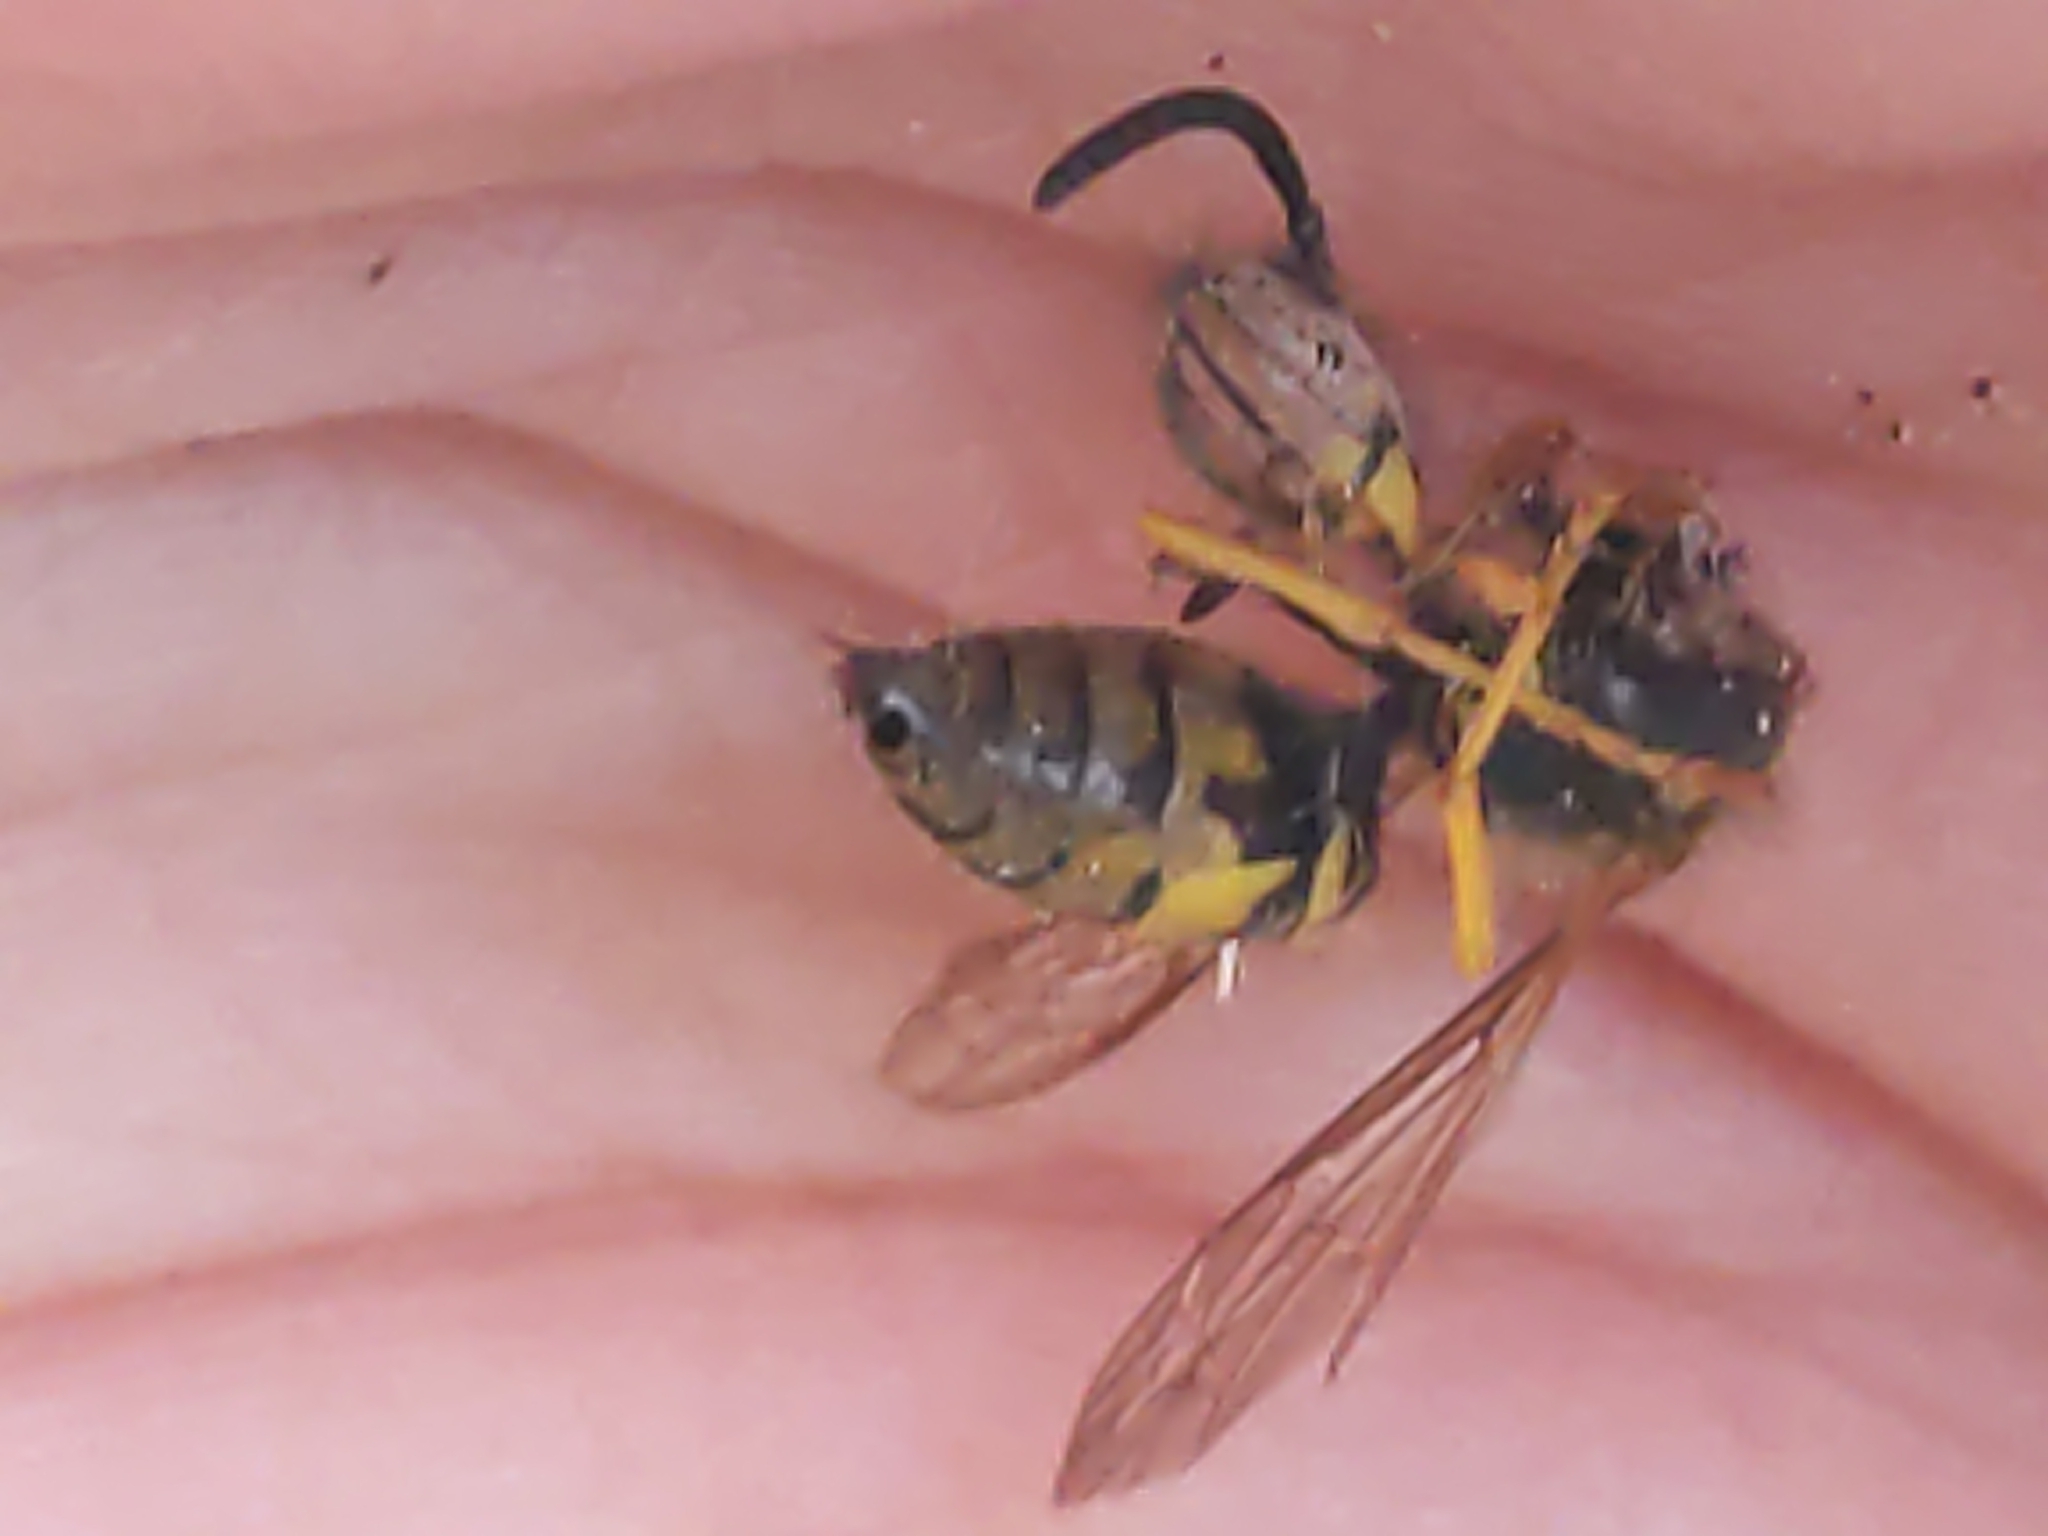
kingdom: Animalia
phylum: Arthropoda
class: Insecta
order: Hymenoptera
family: Vespidae
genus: Vespula
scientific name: Vespula maculifrons
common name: Eastern yellowjacket
